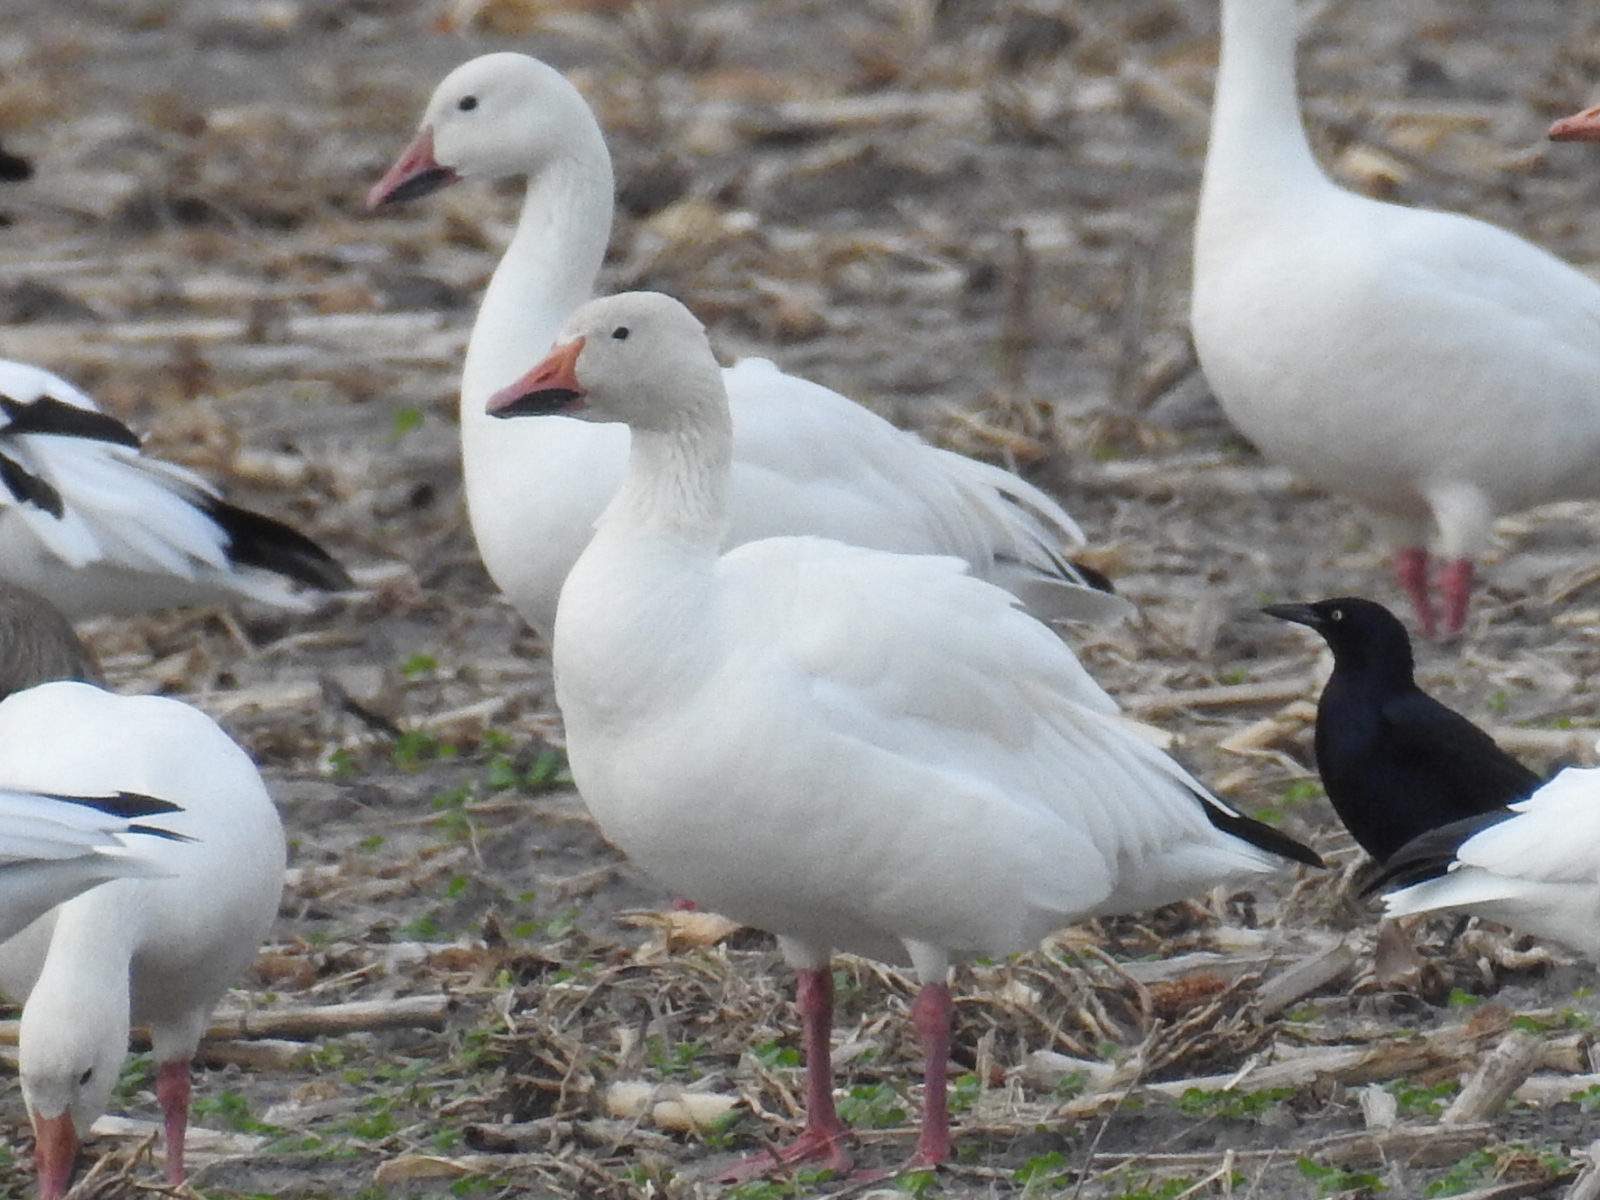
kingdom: Animalia
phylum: Chordata
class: Aves
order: Anseriformes
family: Anatidae
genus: Anser
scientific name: Anser caerulescens
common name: Snow goose
